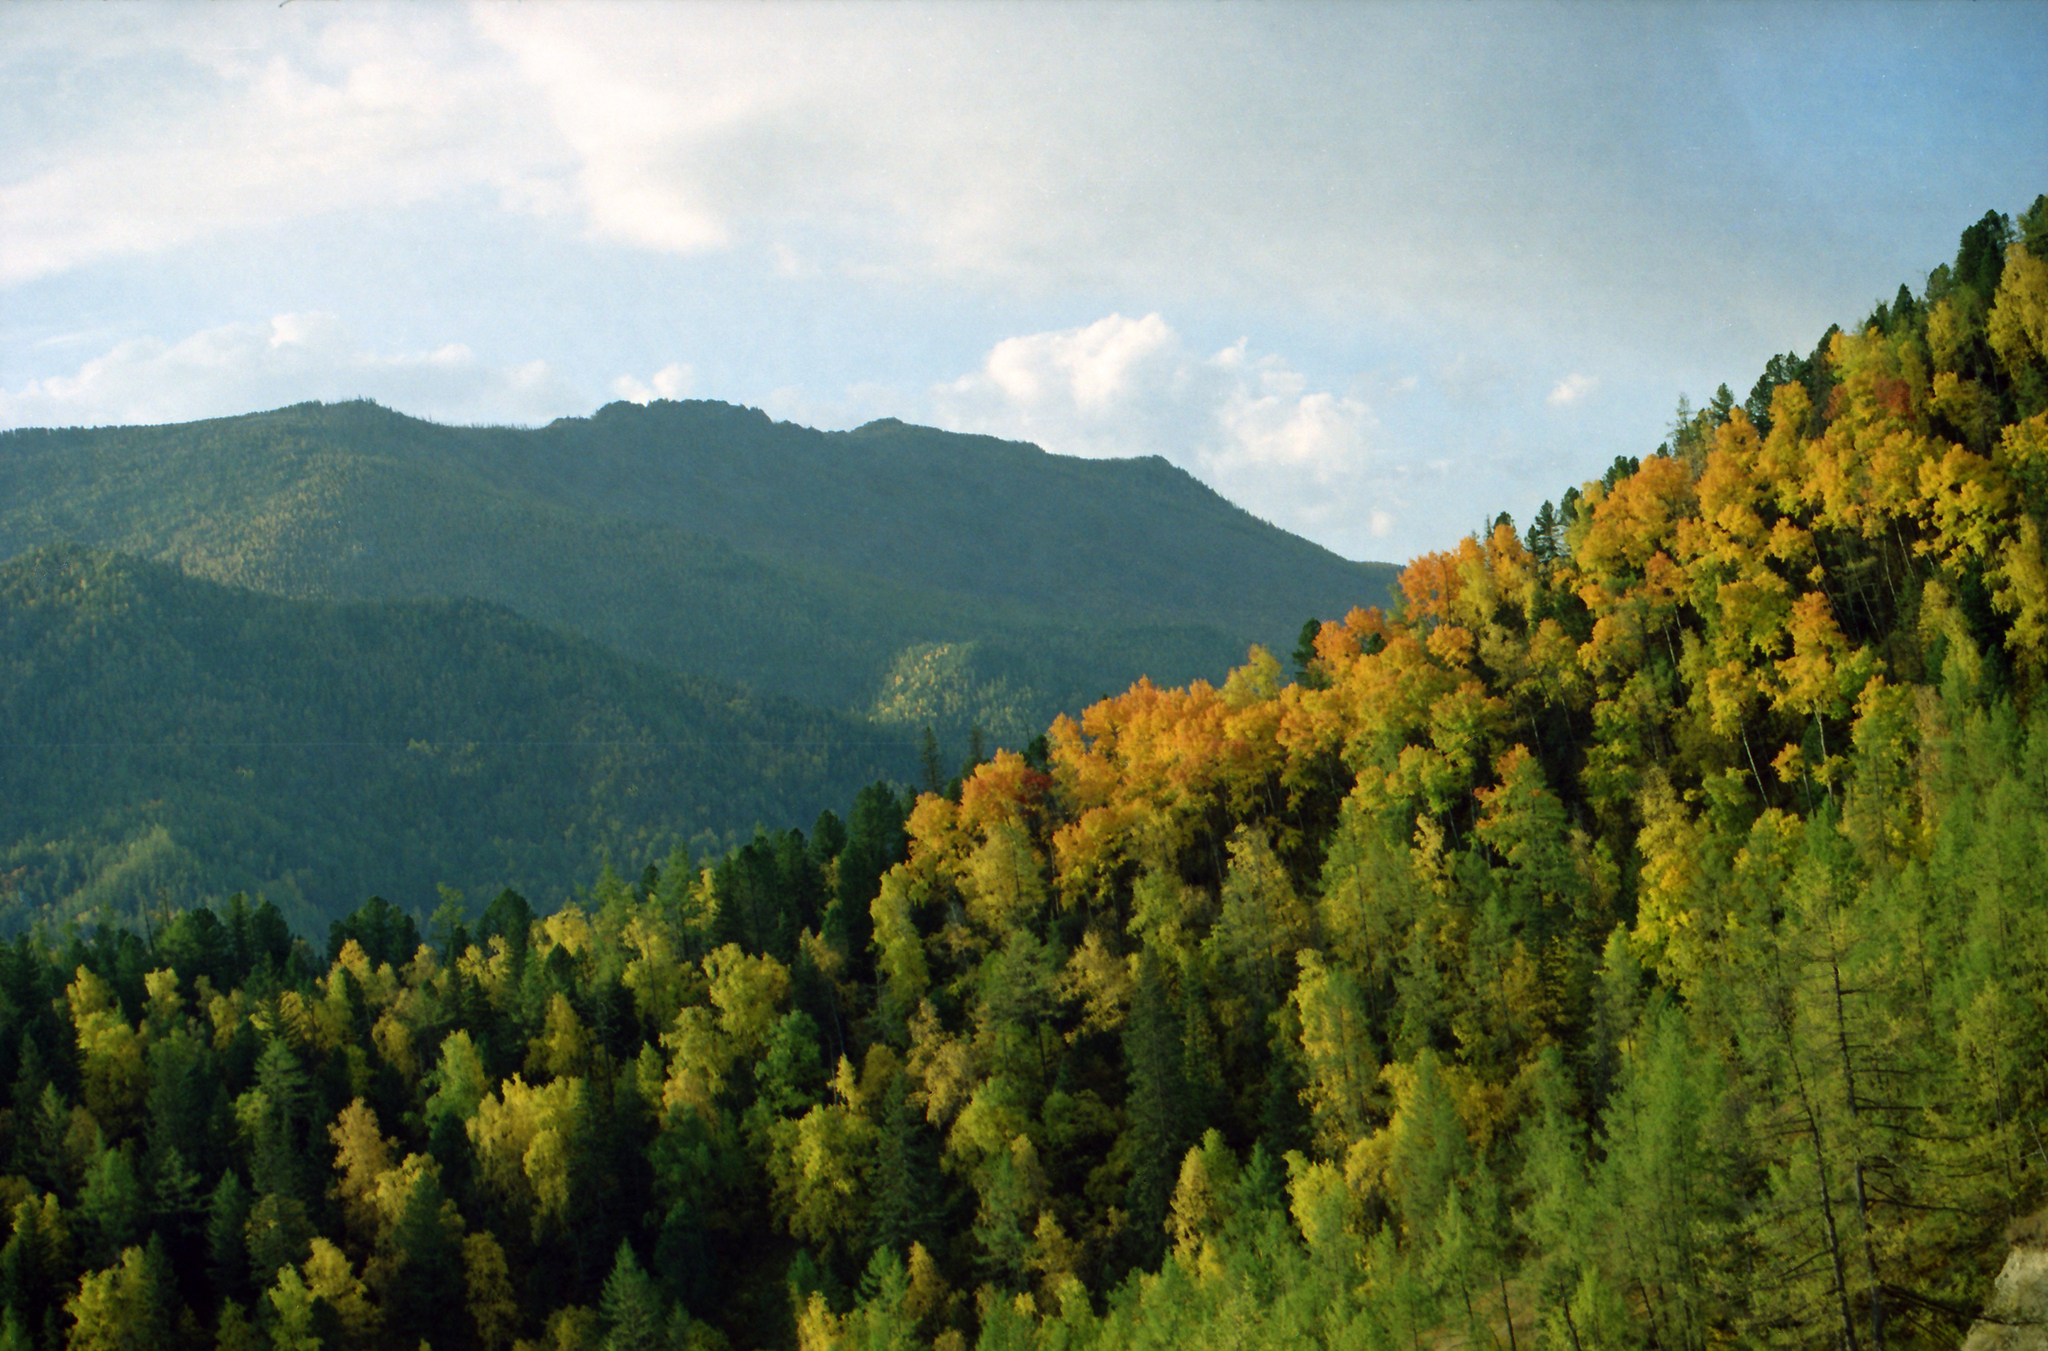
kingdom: Plantae
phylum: Tracheophyta
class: Pinopsida
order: Pinales
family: Pinaceae
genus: Larix
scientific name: Larix sibirica
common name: Siberian larch
